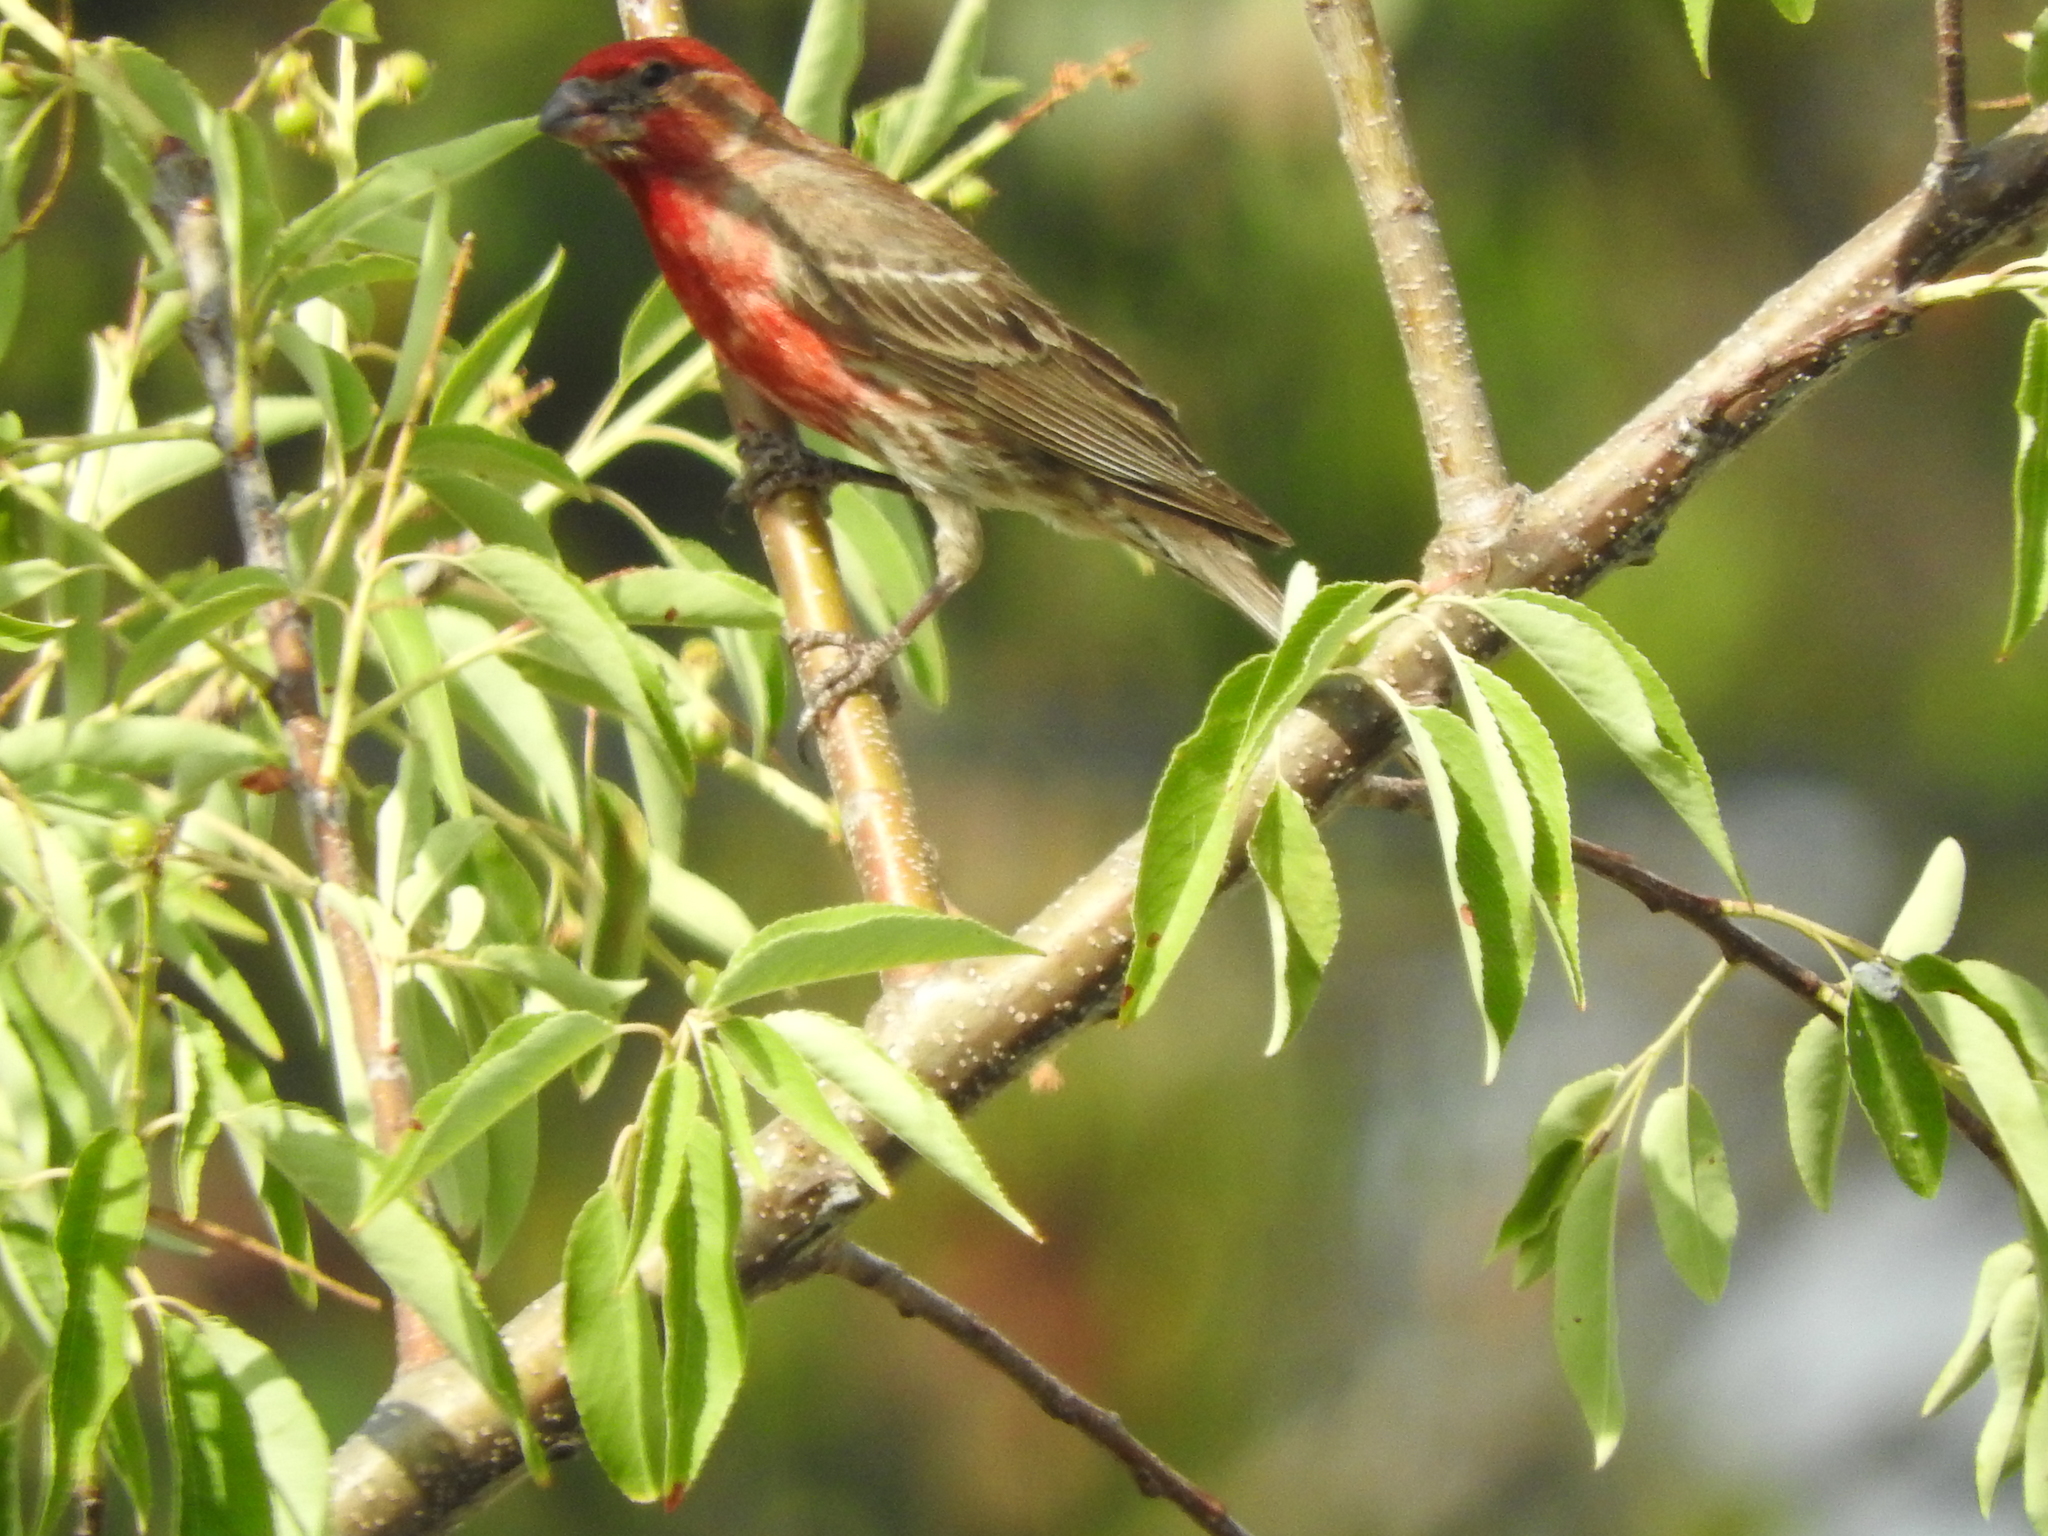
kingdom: Animalia
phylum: Chordata
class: Aves
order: Passeriformes
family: Fringillidae
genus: Haemorhous
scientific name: Haemorhous mexicanus
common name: House finch
